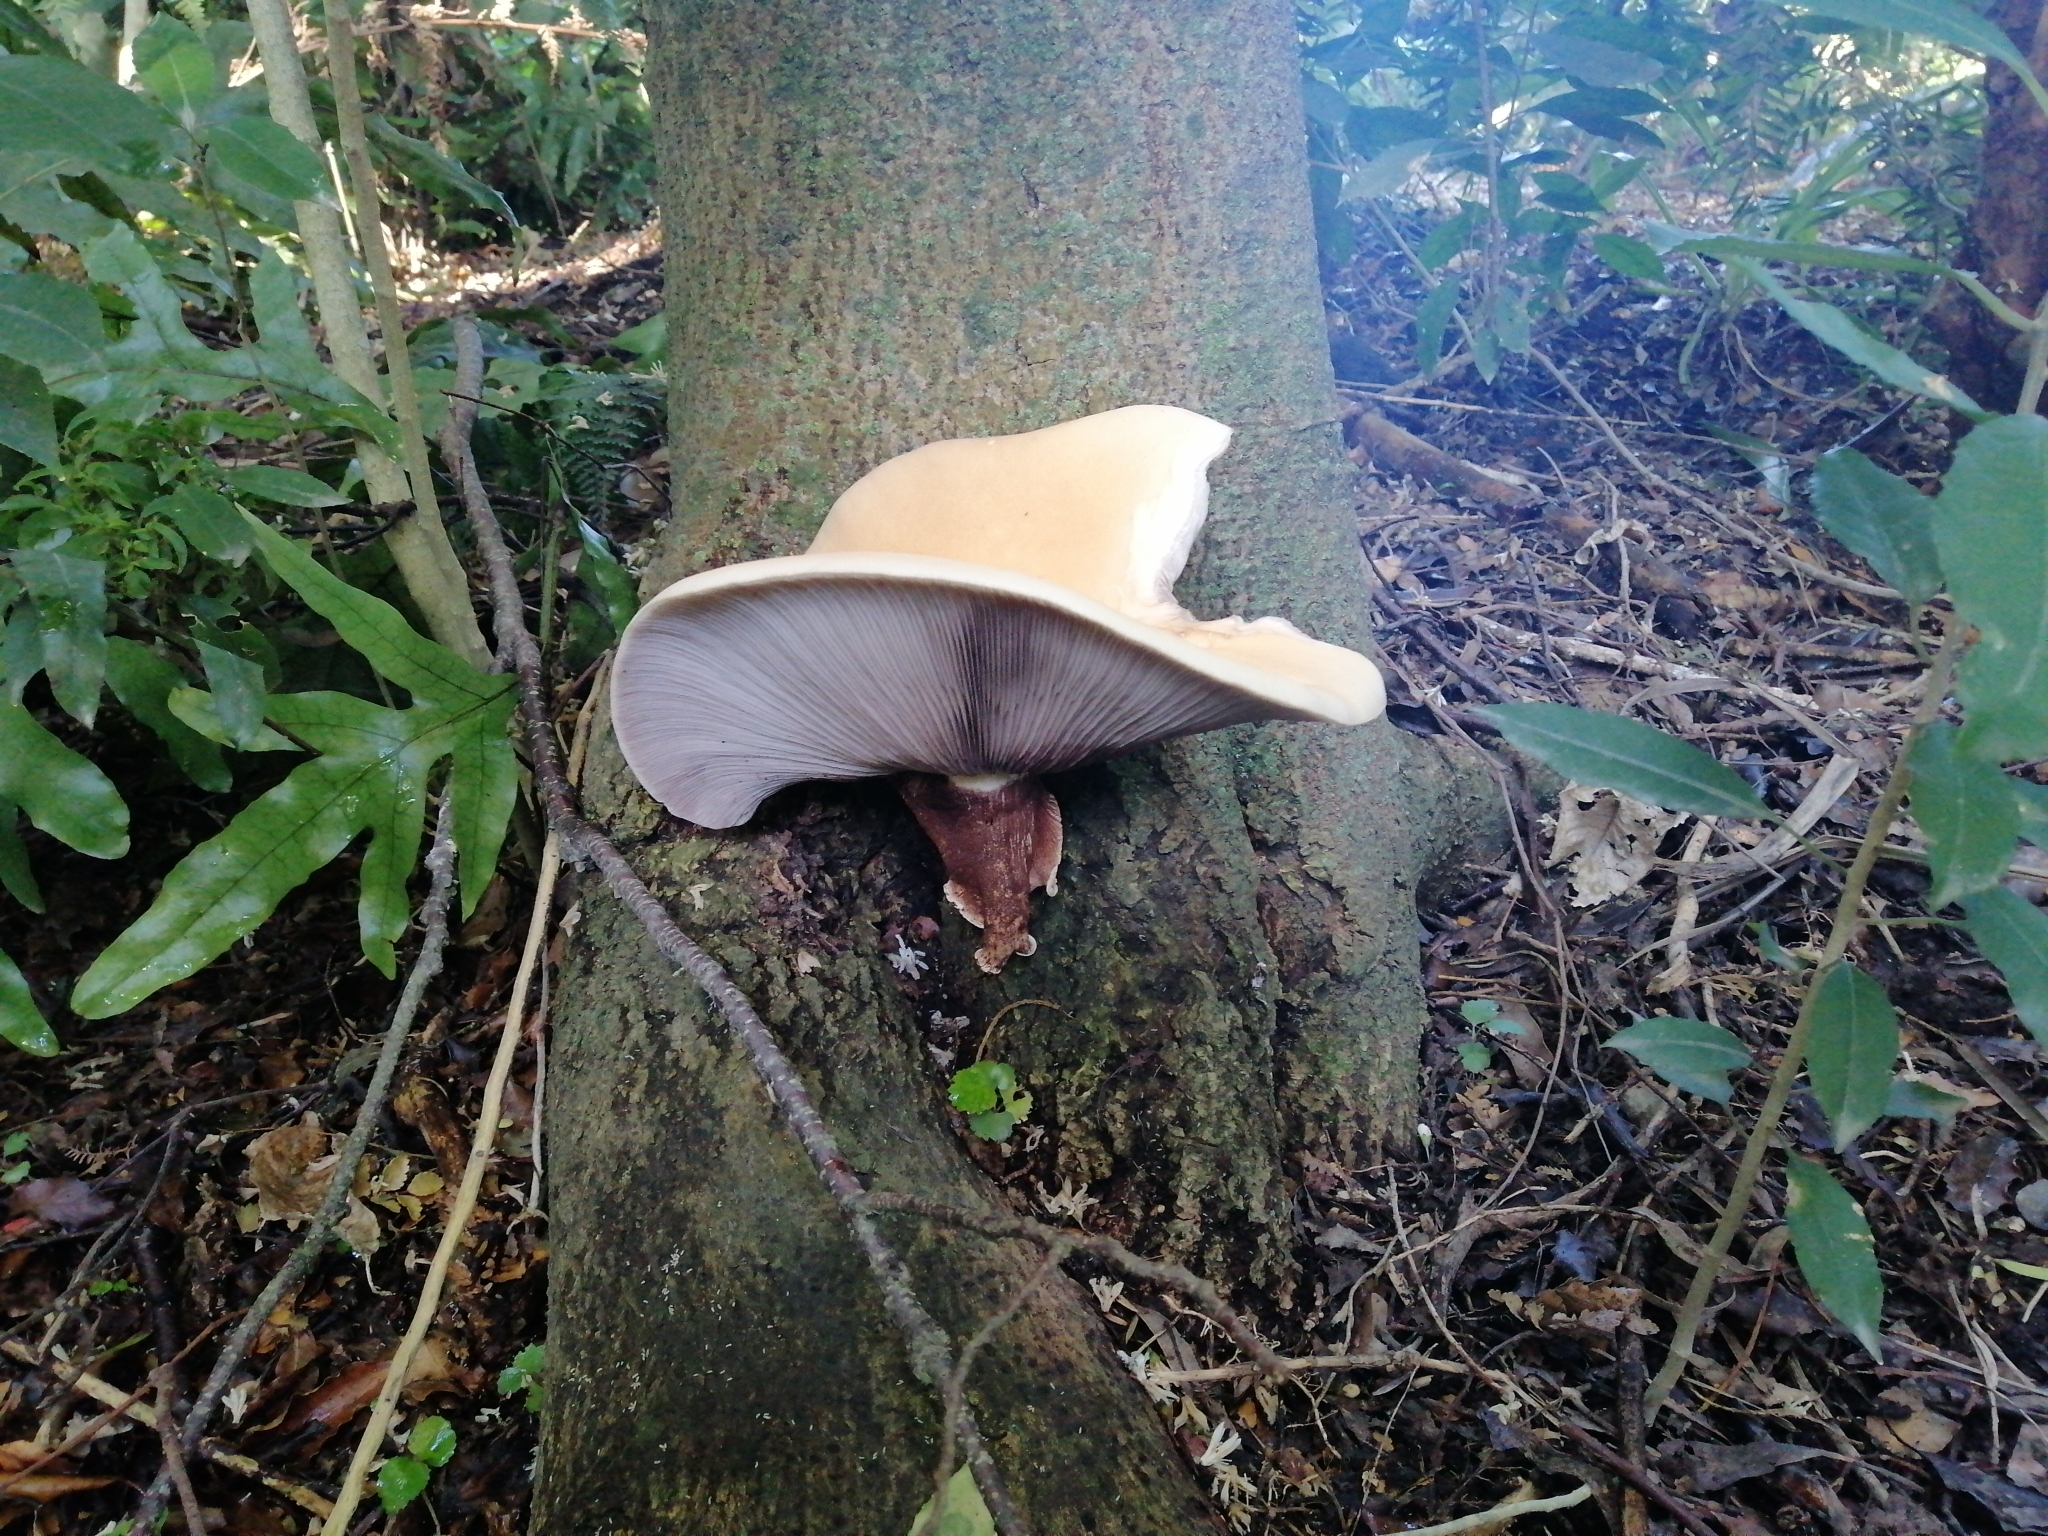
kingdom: Fungi
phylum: Basidiomycota
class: Agaricomycetes
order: Agaricales
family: Tubariaceae
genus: Cyclocybe
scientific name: Cyclocybe parasitica
